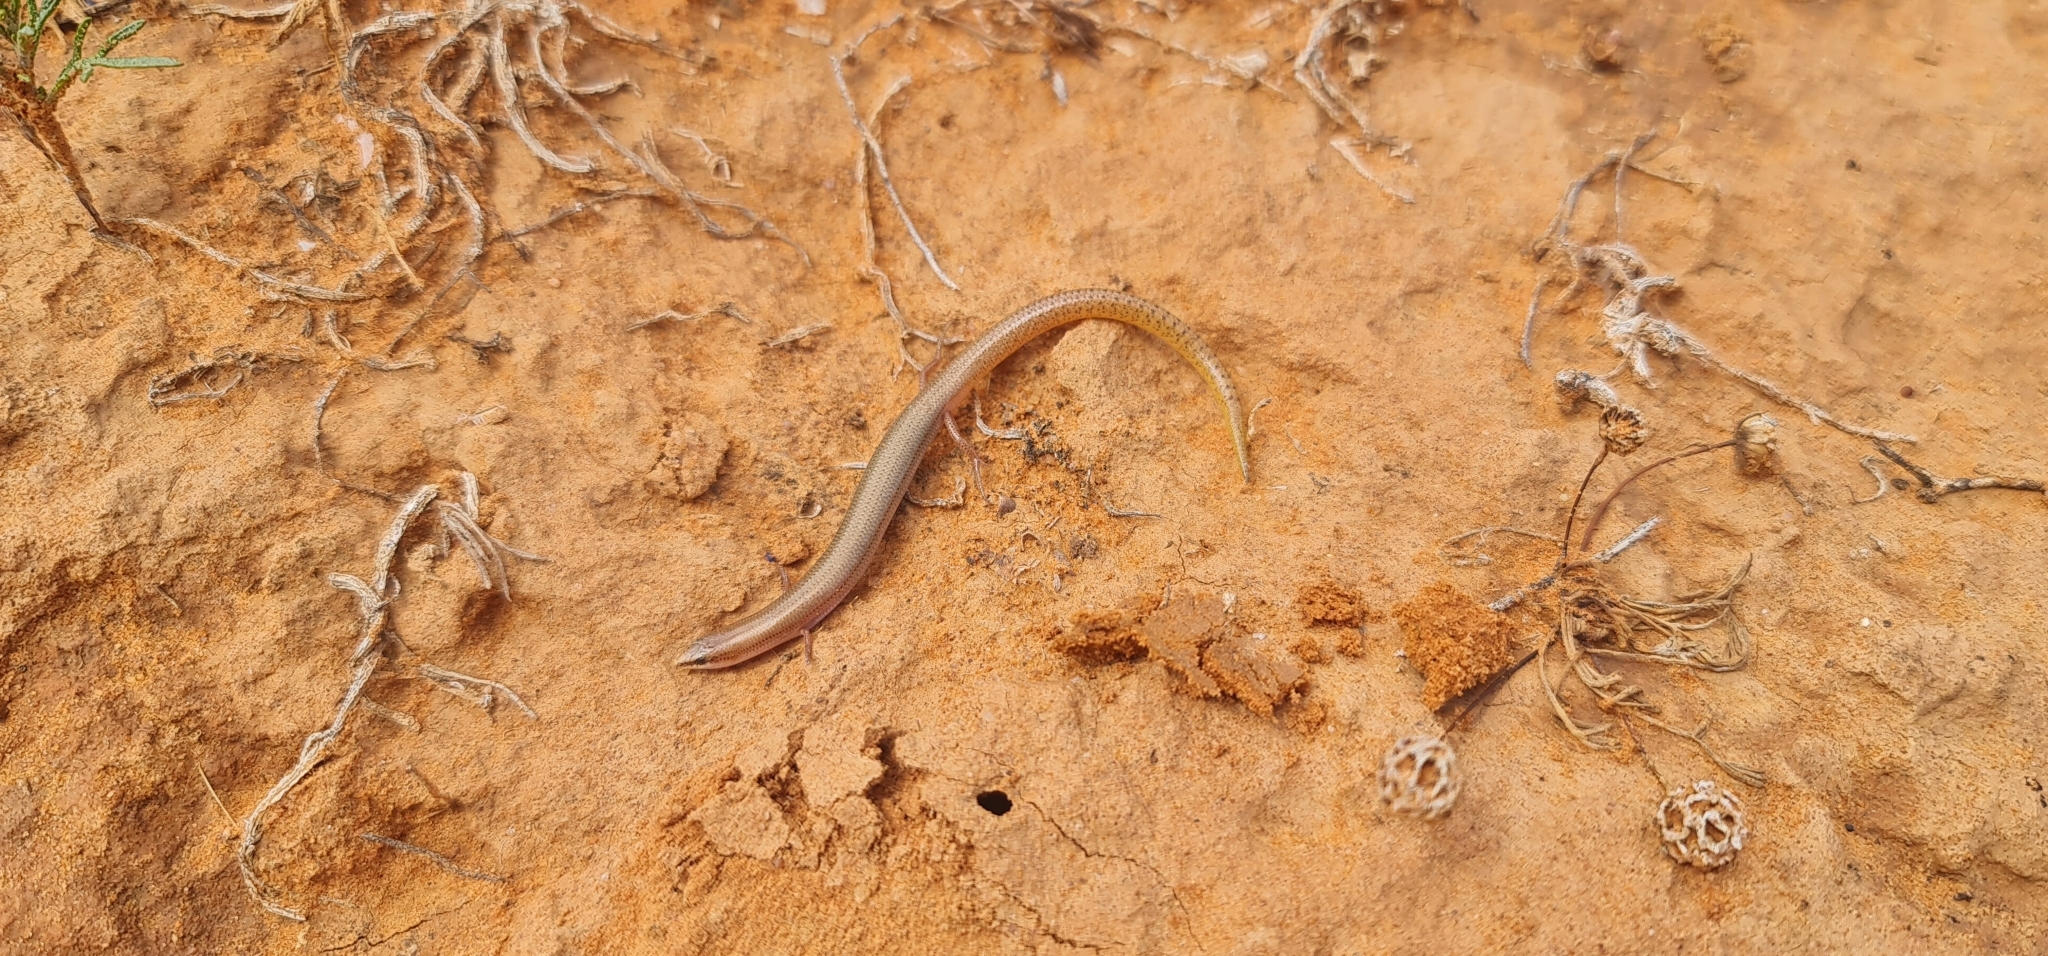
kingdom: Animalia
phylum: Chordata
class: Squamata
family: Scincidae
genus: Lerista
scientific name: Lerista aericeps
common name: Desert plain slider
